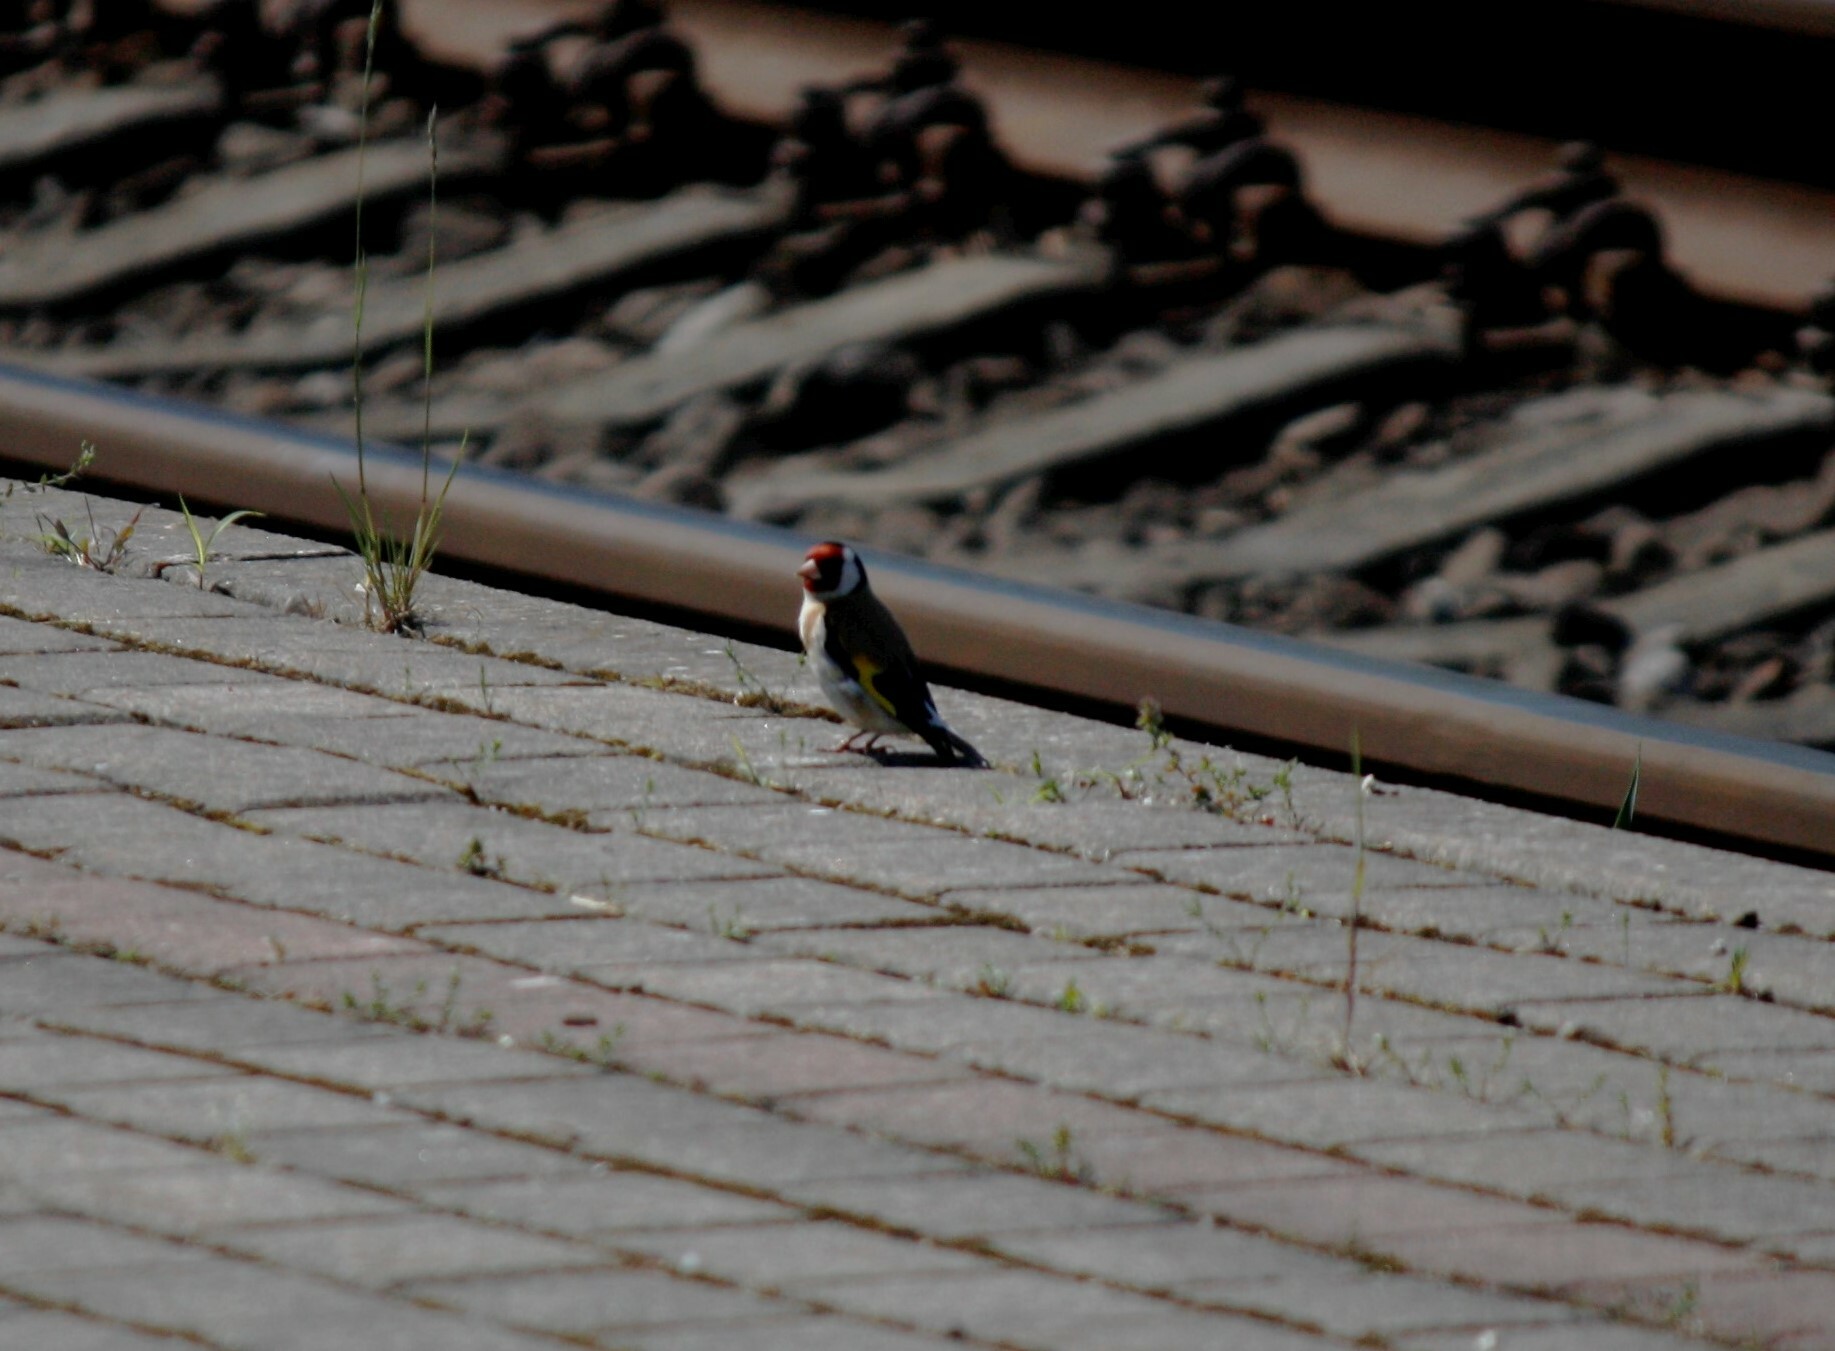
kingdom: Animalia
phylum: Chordata
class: Aves
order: Passeriformes
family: Fringillidae
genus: Carduelis
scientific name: Carduelis carduelis
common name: European goldfinch
